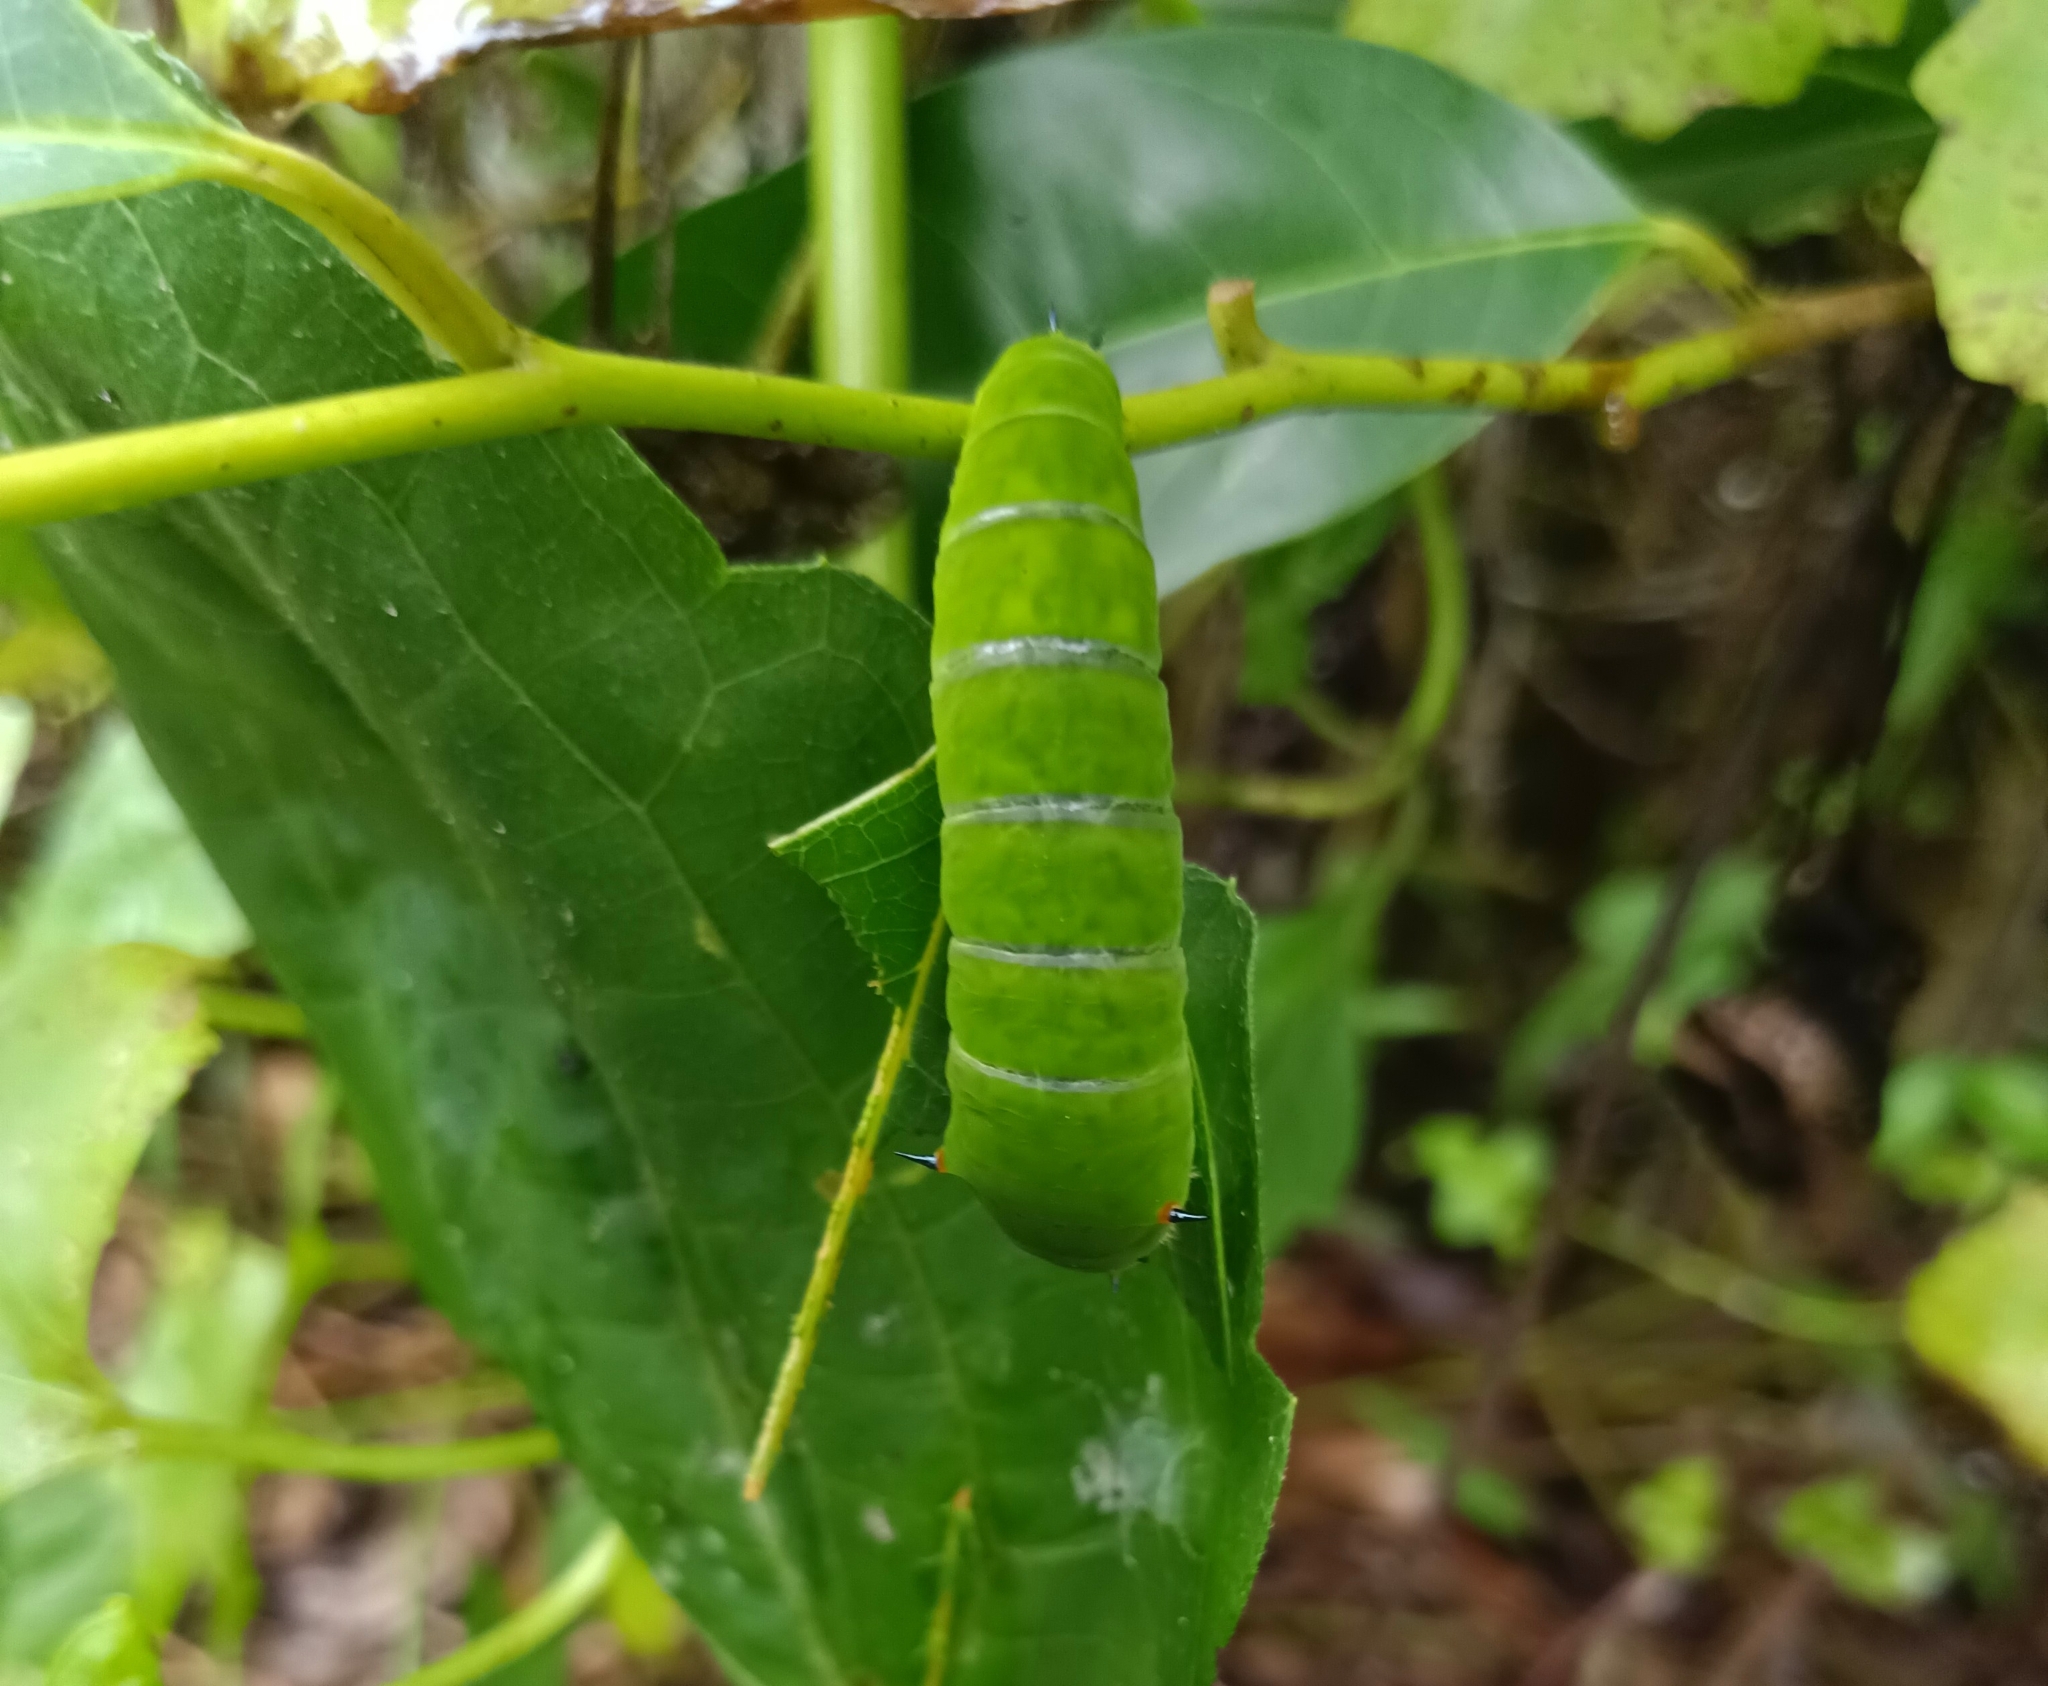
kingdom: Animalia
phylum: Arthropoda
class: Insecta
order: Lepidoptera
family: Papilionidae
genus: Graphium
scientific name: Graphium agamemnon
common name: Tailed jay
